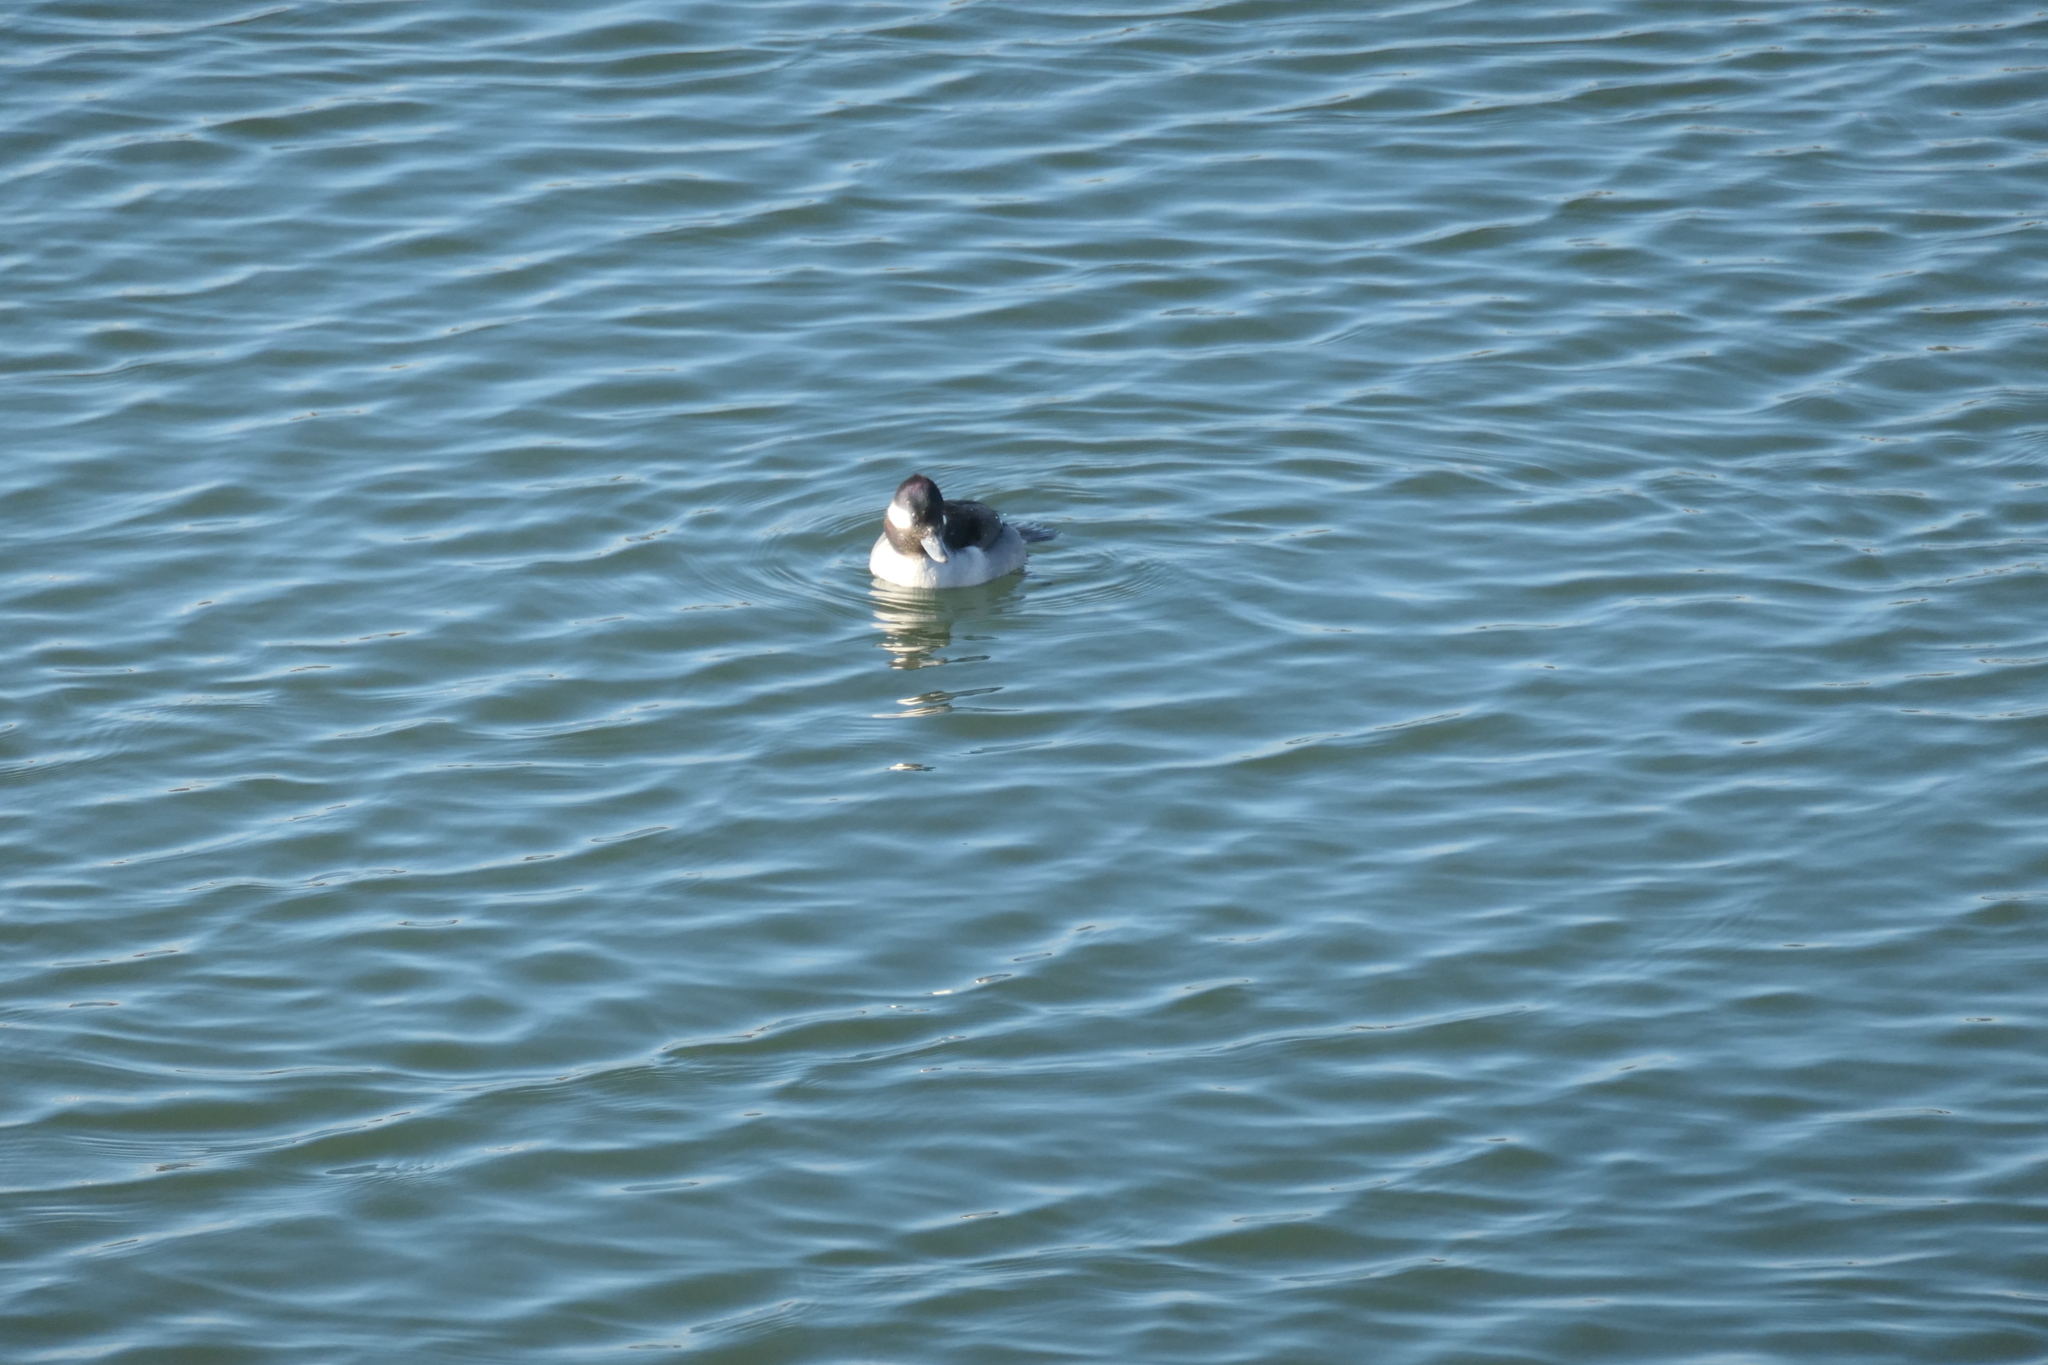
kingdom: Animalia
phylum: Chordata
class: Aves
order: Anseriformes
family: Anatidae
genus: Bucephala
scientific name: Bucephala albeola
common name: Bufflehead
